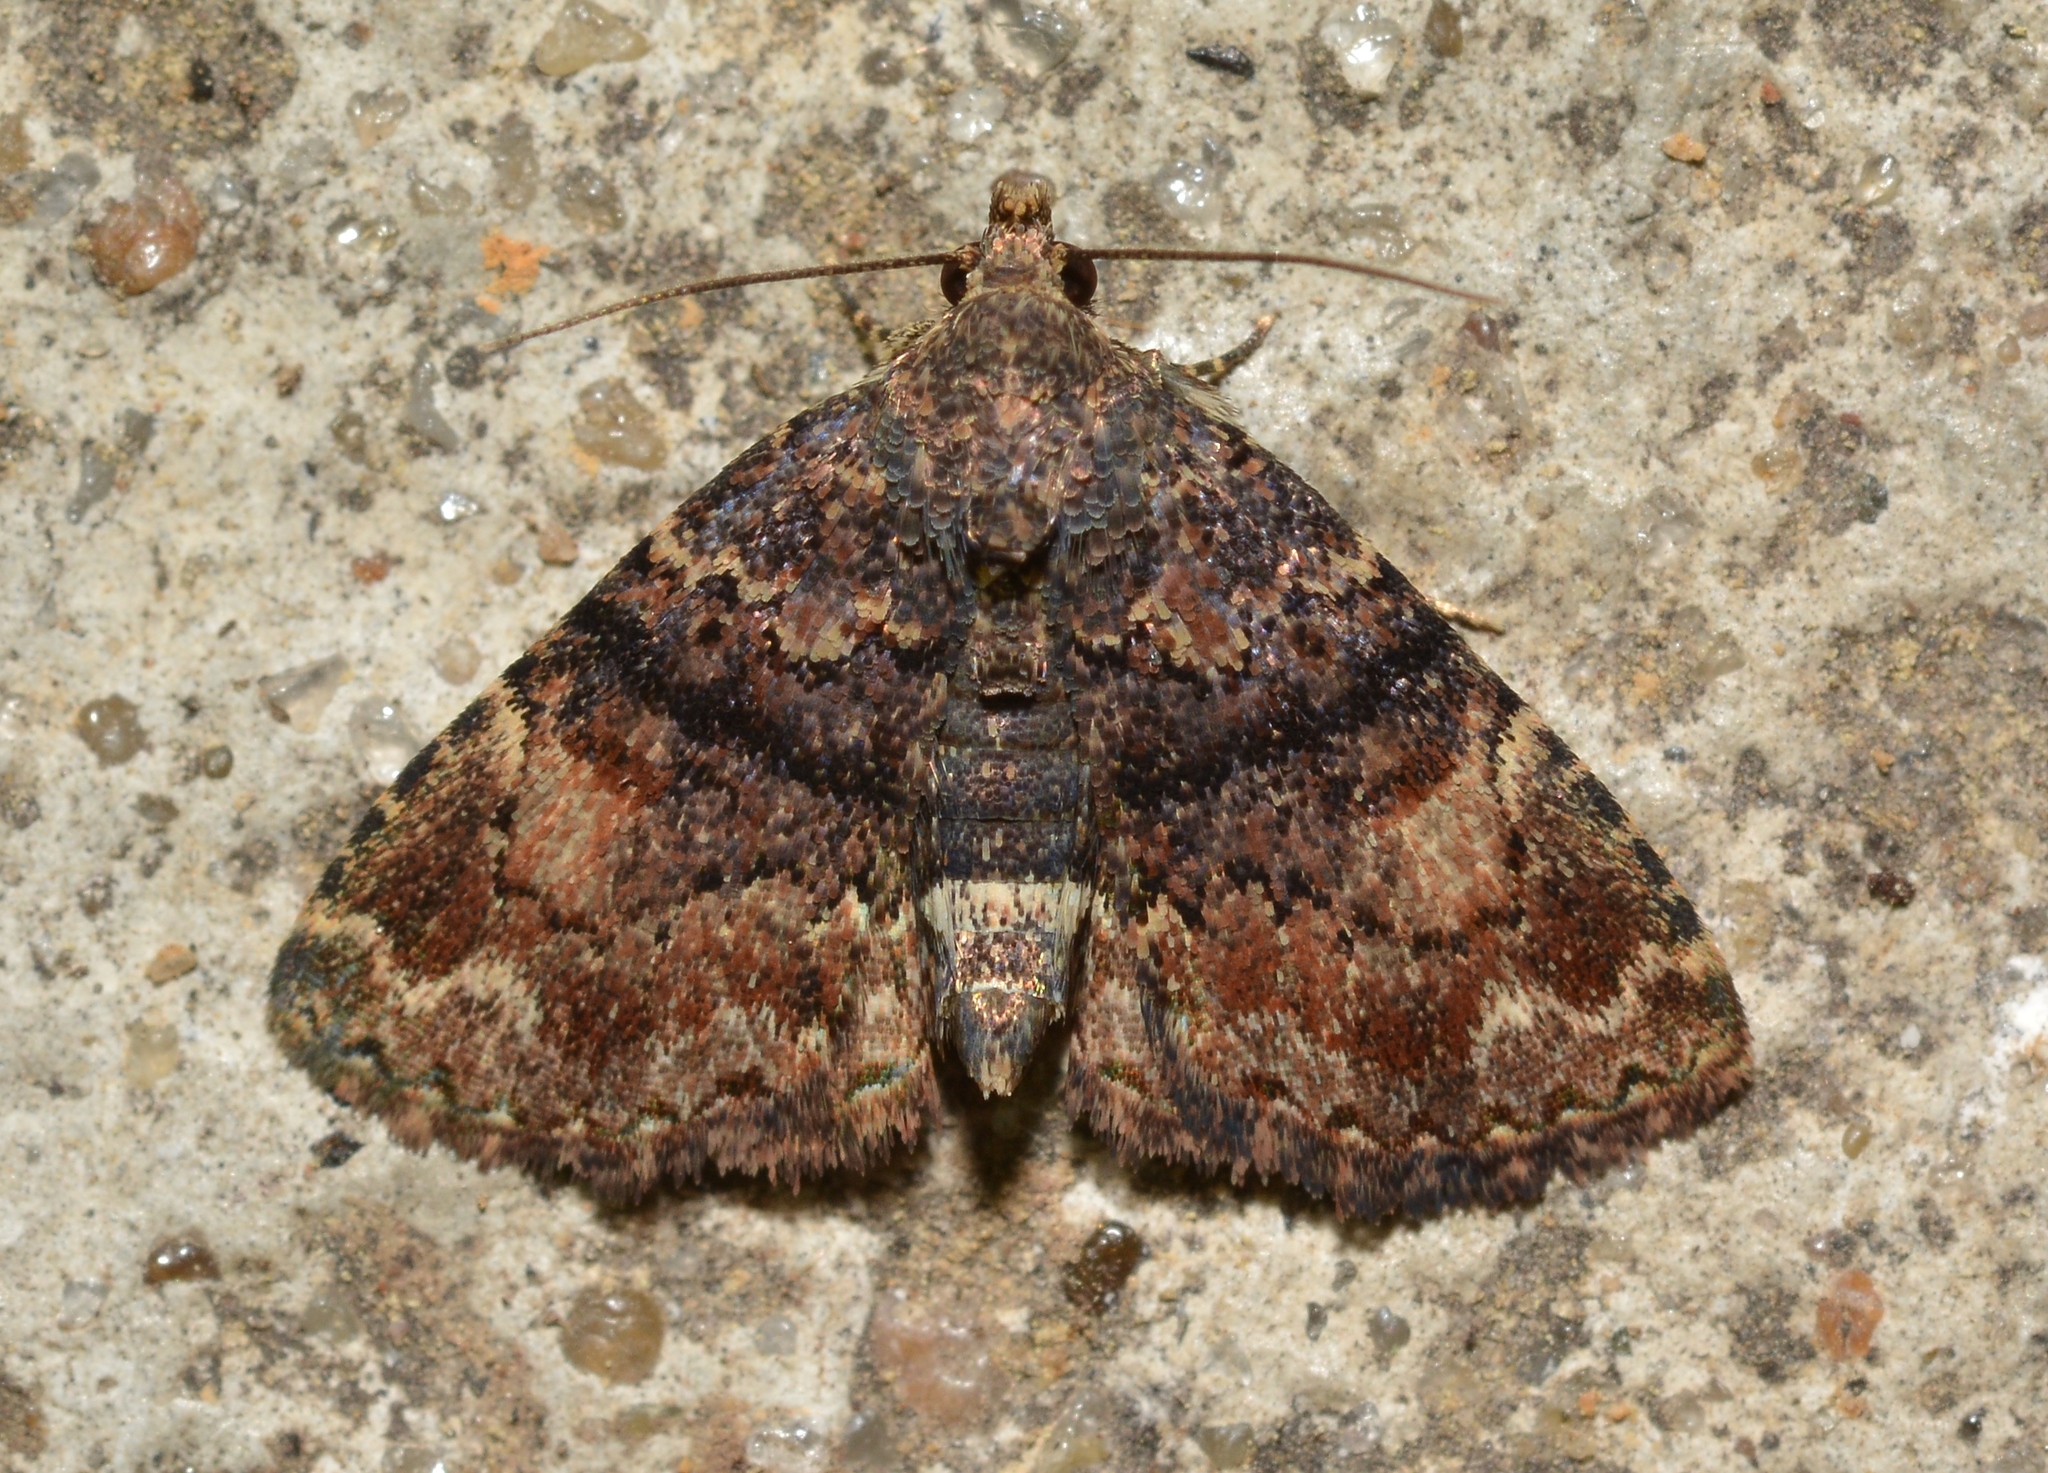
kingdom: Animalia
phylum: Arthropoda
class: Insecta
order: Lepidoptera
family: Erebidae
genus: Metalectra
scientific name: Metalectra richardsi
